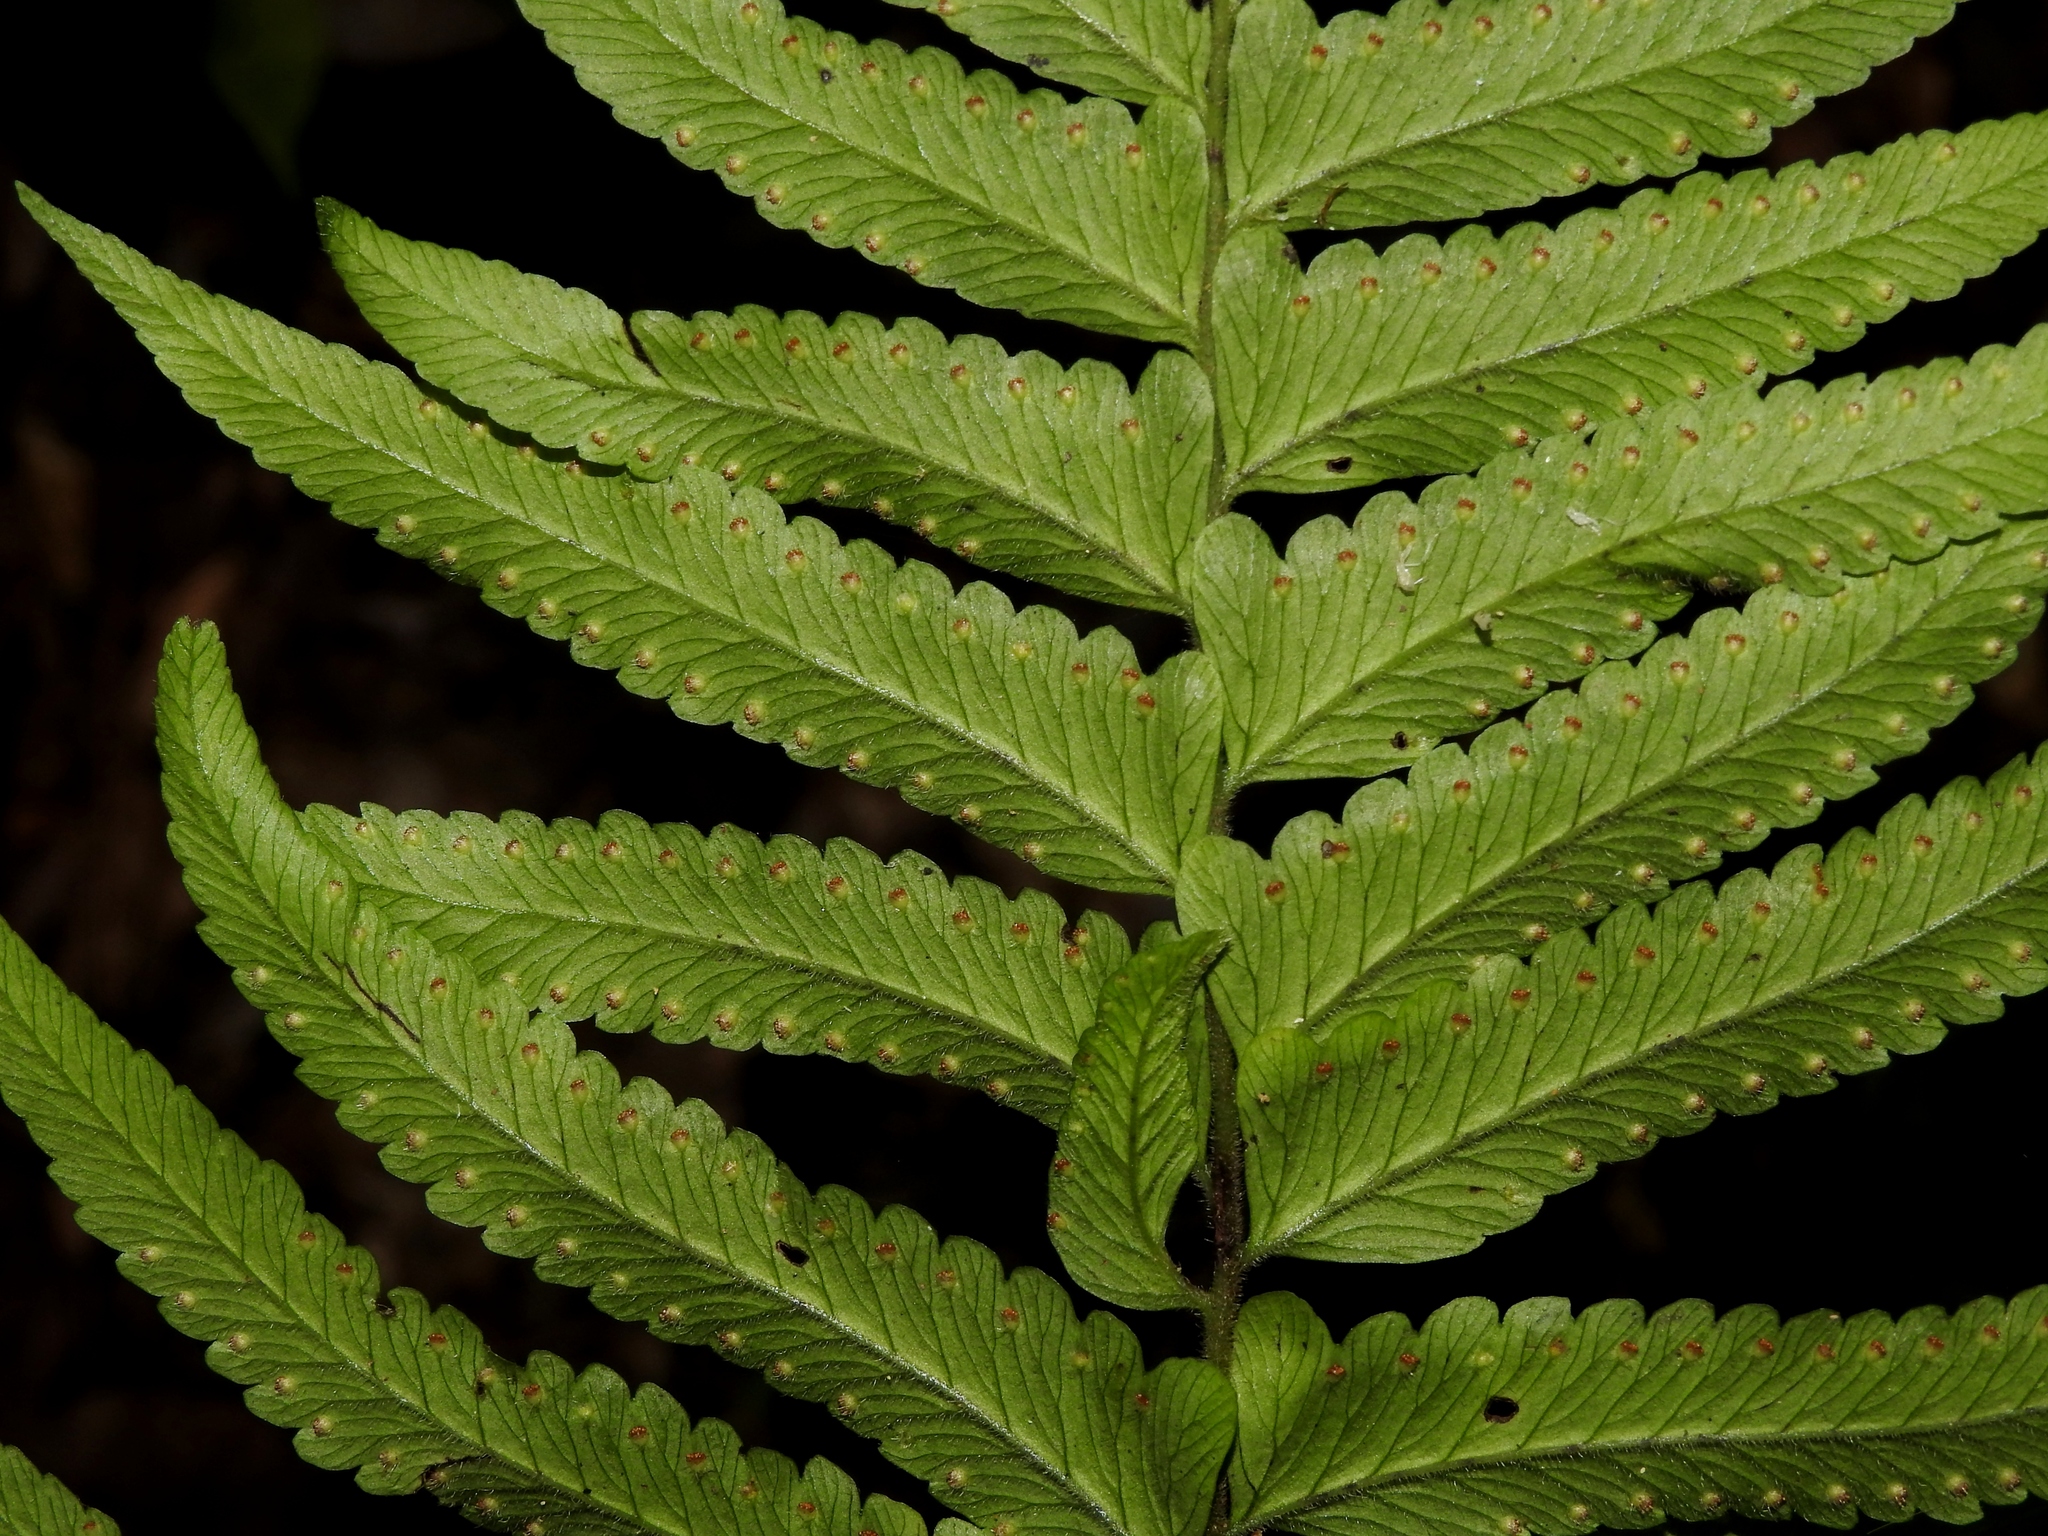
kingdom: Plantae
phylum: Tracheophyta
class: Polypodiopsida
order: Polypodiales
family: Dennstaedtiaceae
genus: Microlepia
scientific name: Microlepia marginata
